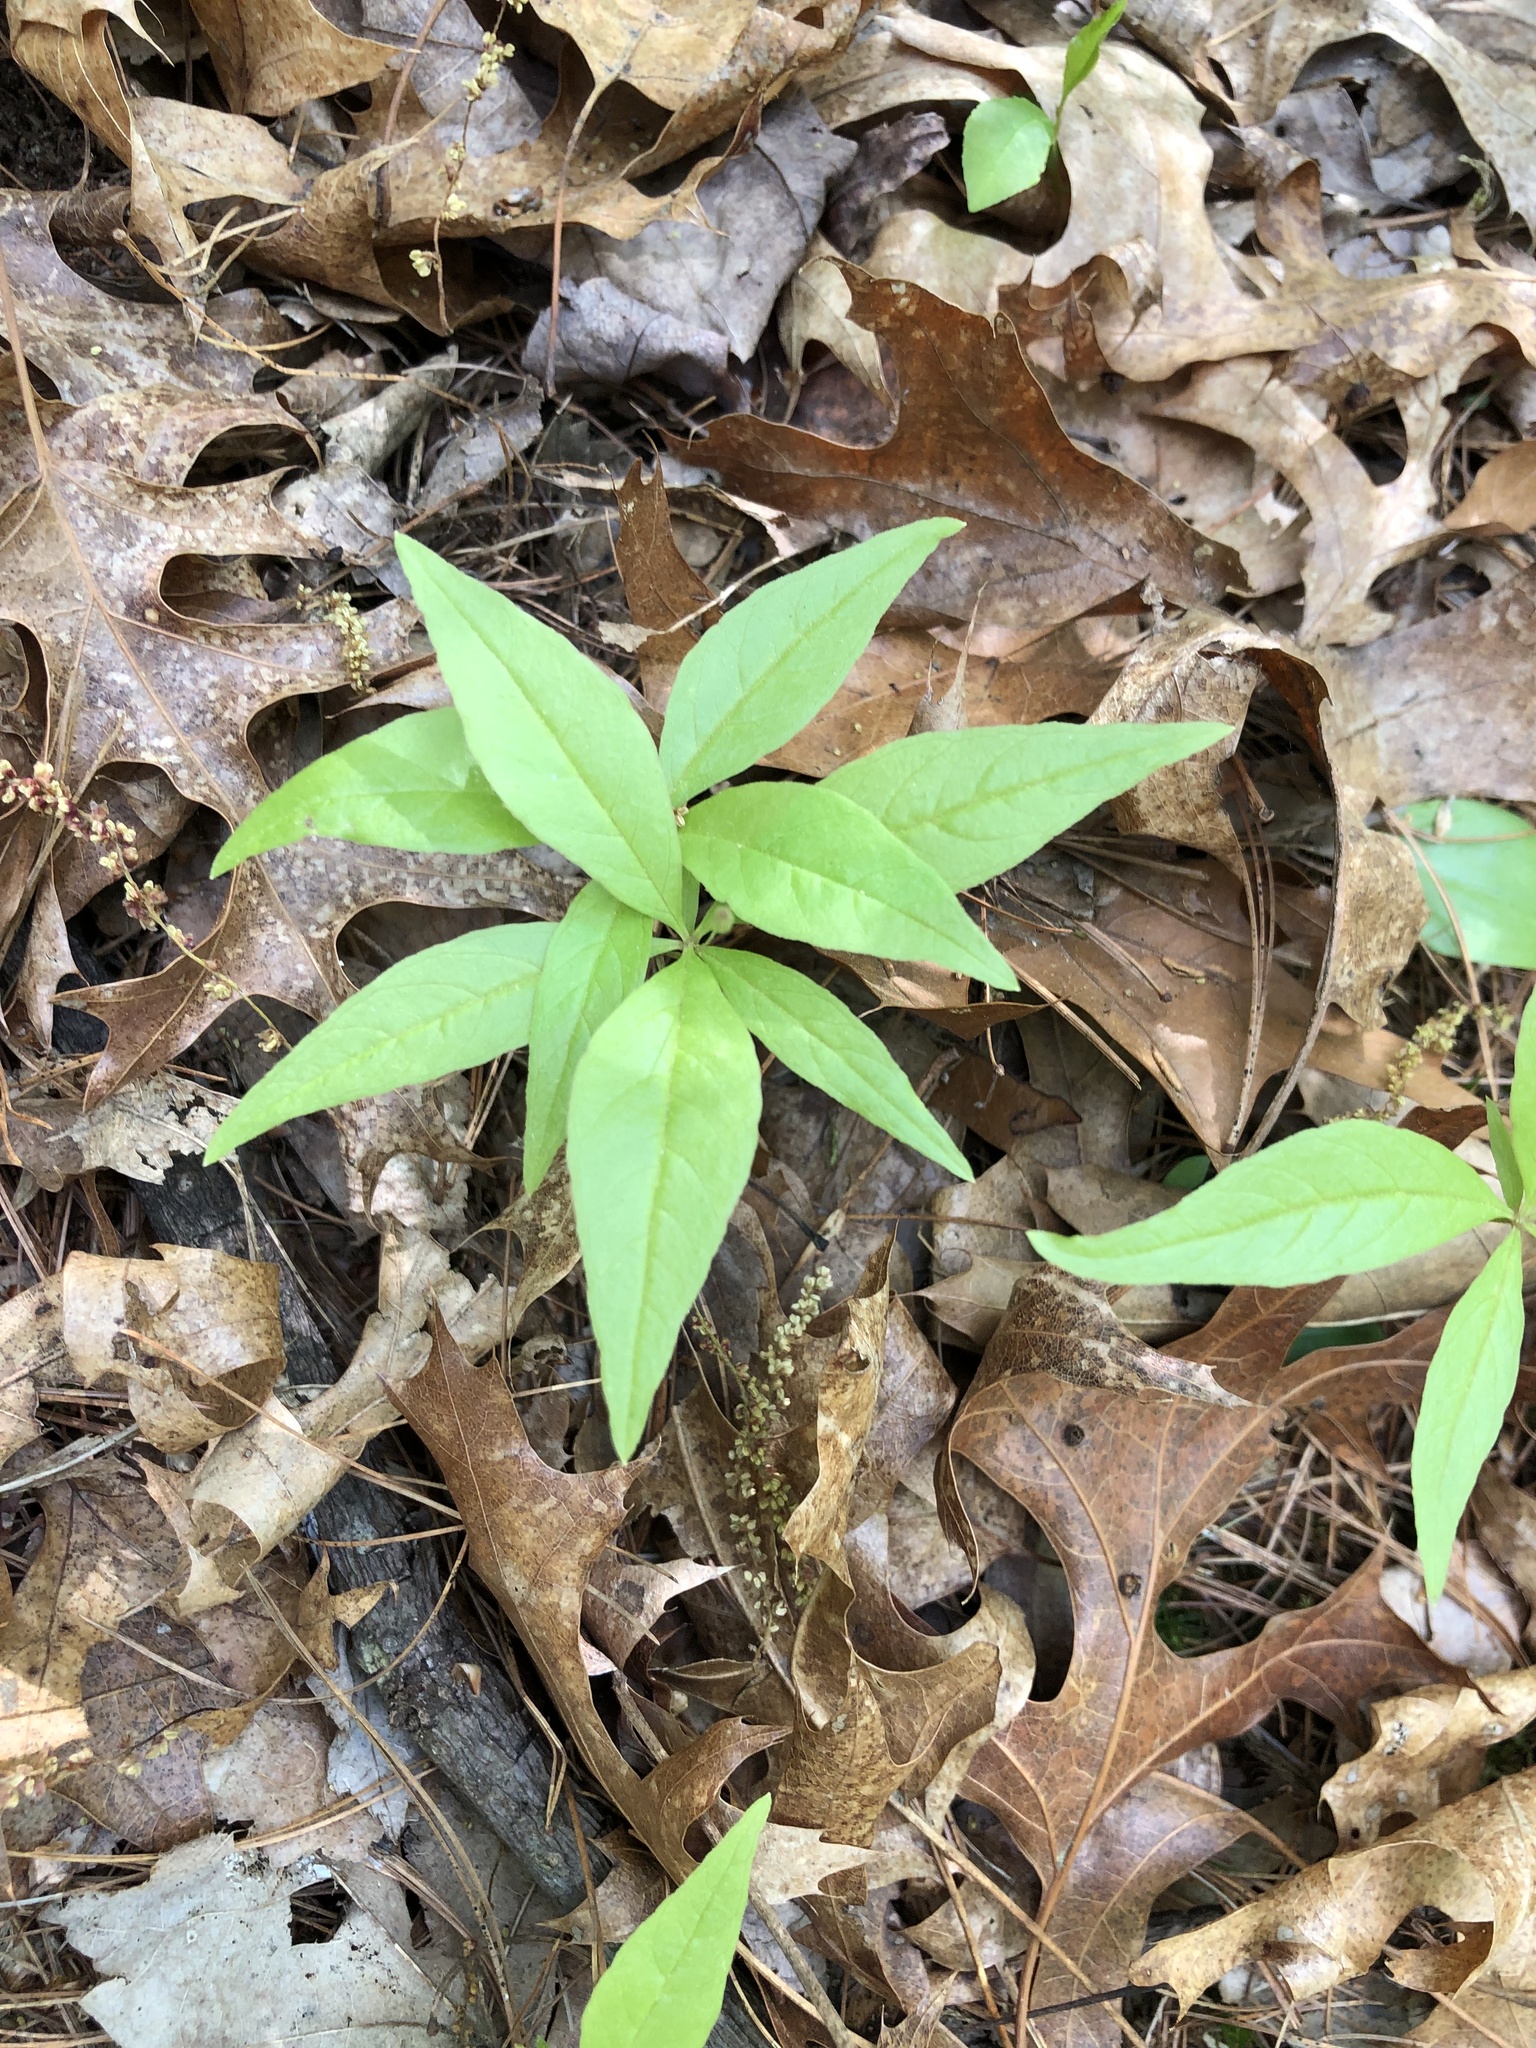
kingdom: Plantae
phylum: Tracheophyta
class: Magnoliopsida
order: Ericales
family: Primulaceae
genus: Lysimachia
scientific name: Lysimachia borealis
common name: American starflower
